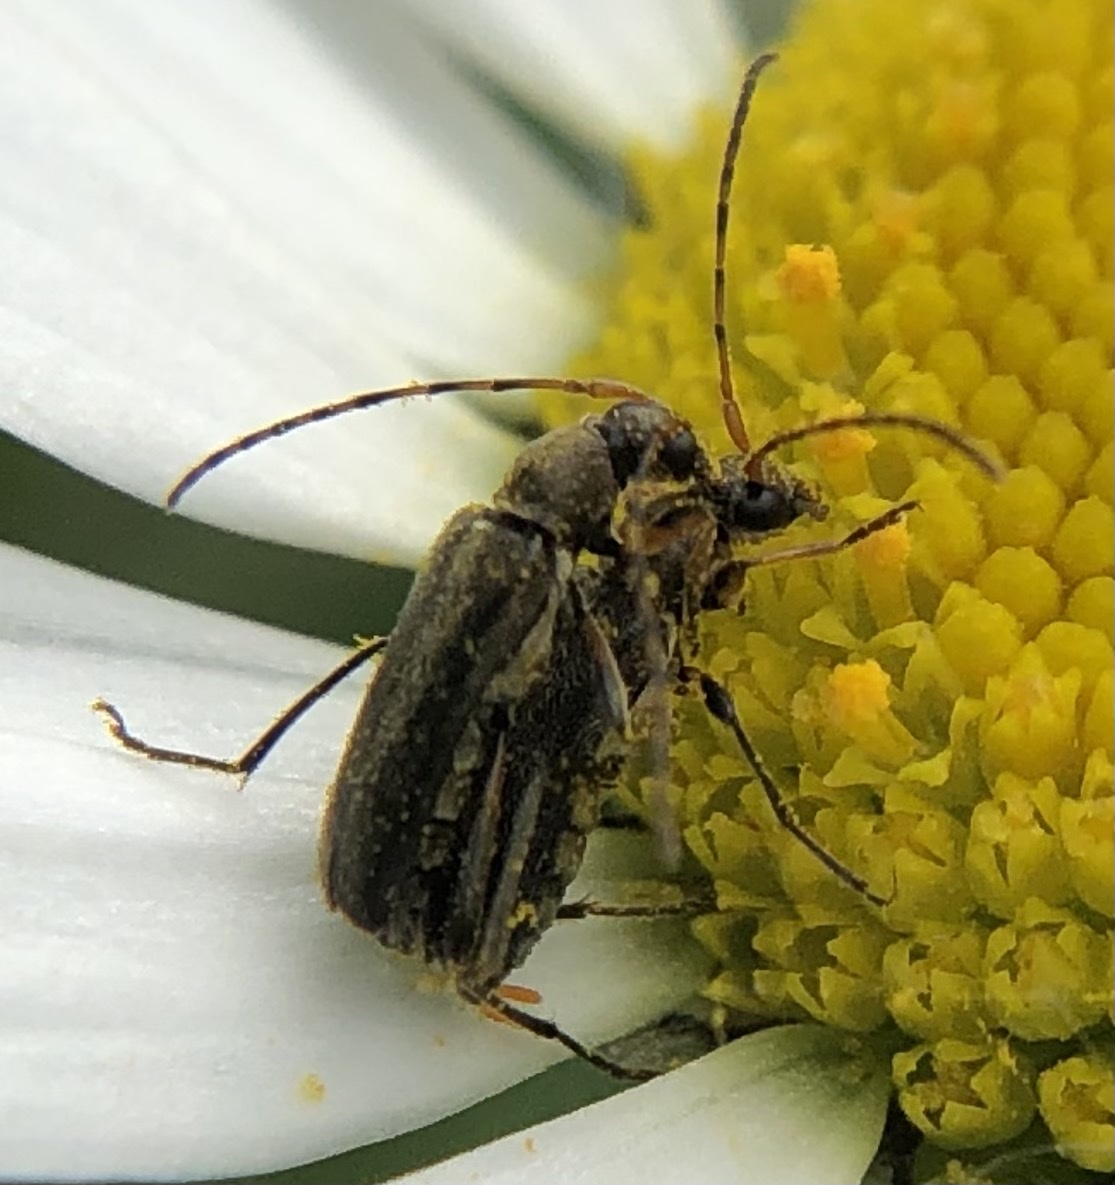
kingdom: Animalia
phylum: Arthropoda
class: Insecta
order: Coleoptera
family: Cerambycidae
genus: Grammoptera
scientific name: Grammoptera ruficornis
